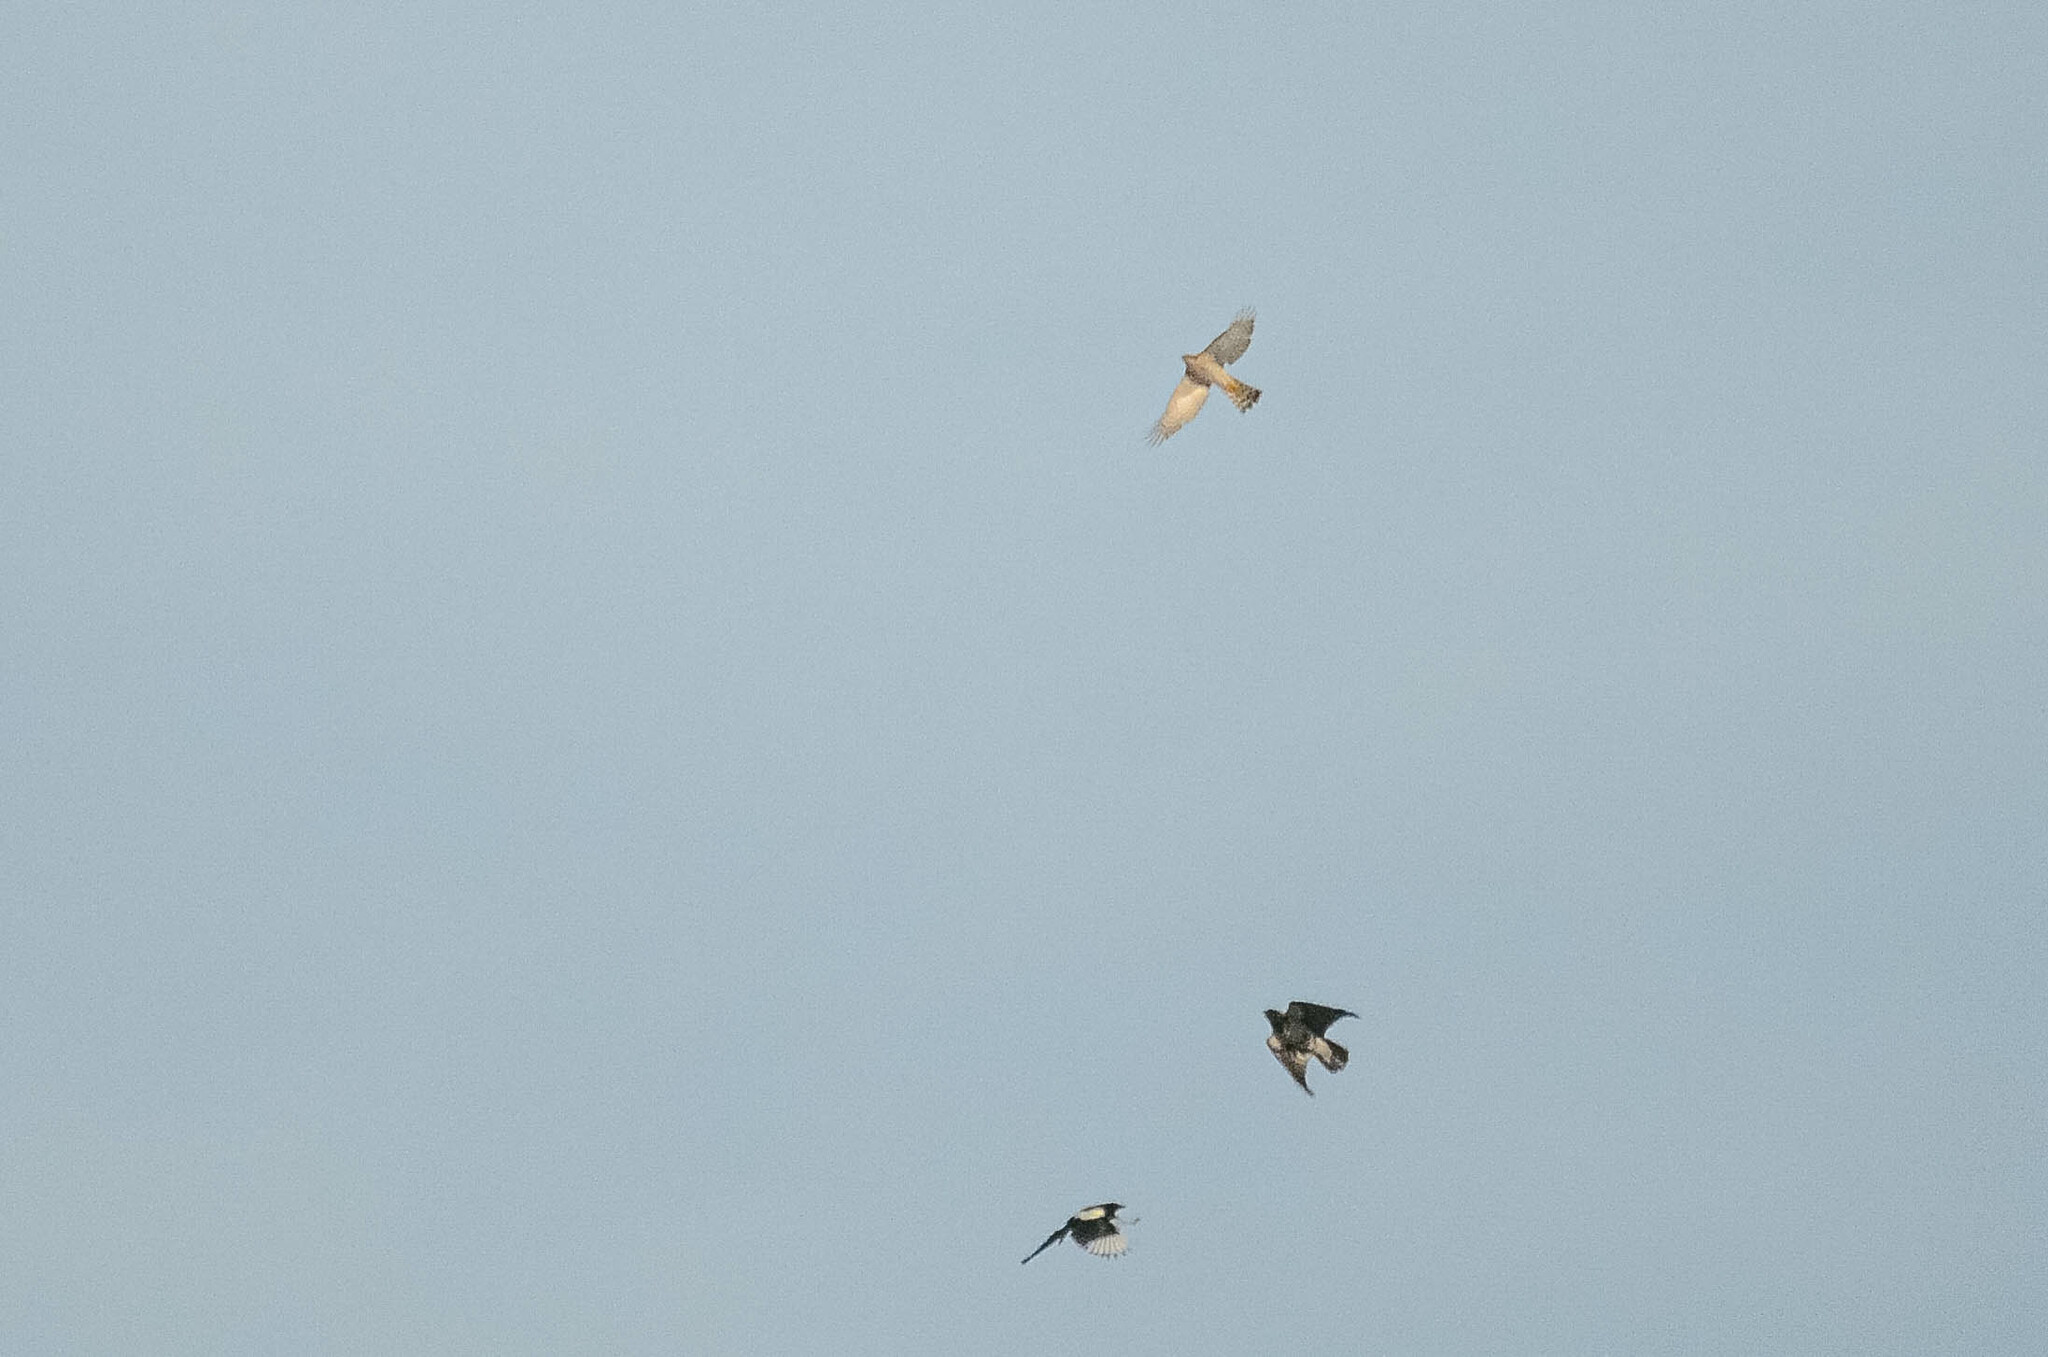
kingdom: Animalia
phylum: Chordata
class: Aves
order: Accipitriformes
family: Accipitridae
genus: Accipiter
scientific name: Accipiter nisus
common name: Eurasian sparrowhawk
